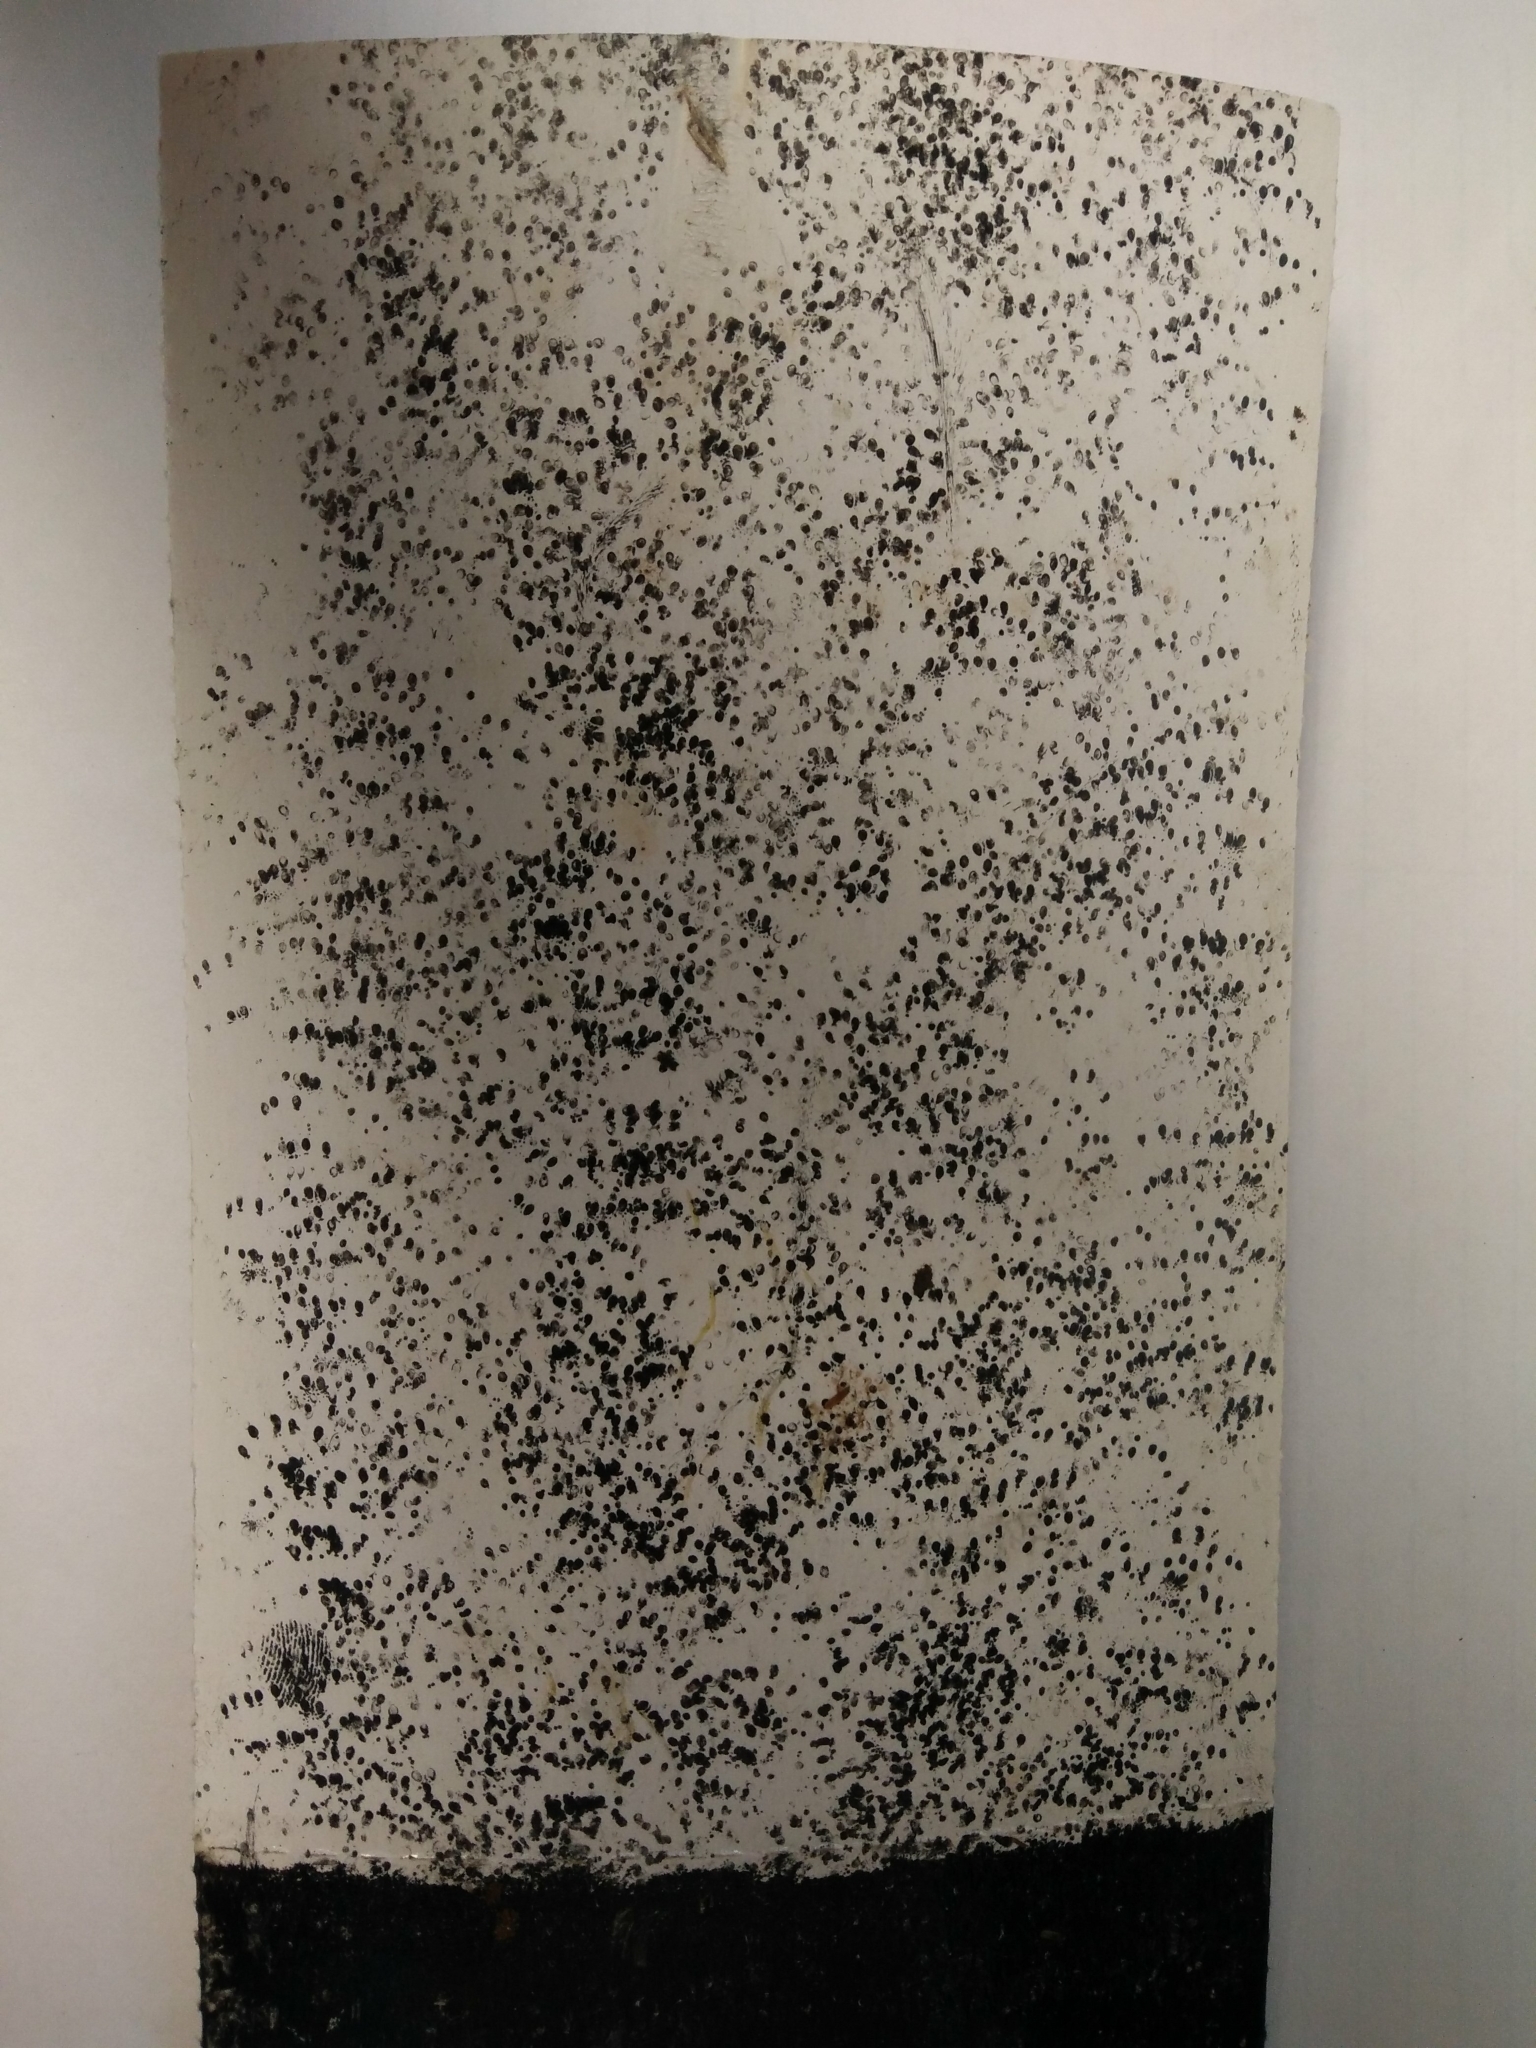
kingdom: Animalia
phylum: Chordata
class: Mammalia
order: Rodentia
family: Muridae
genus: Mus
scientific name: Mus musculus
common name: House mouse
